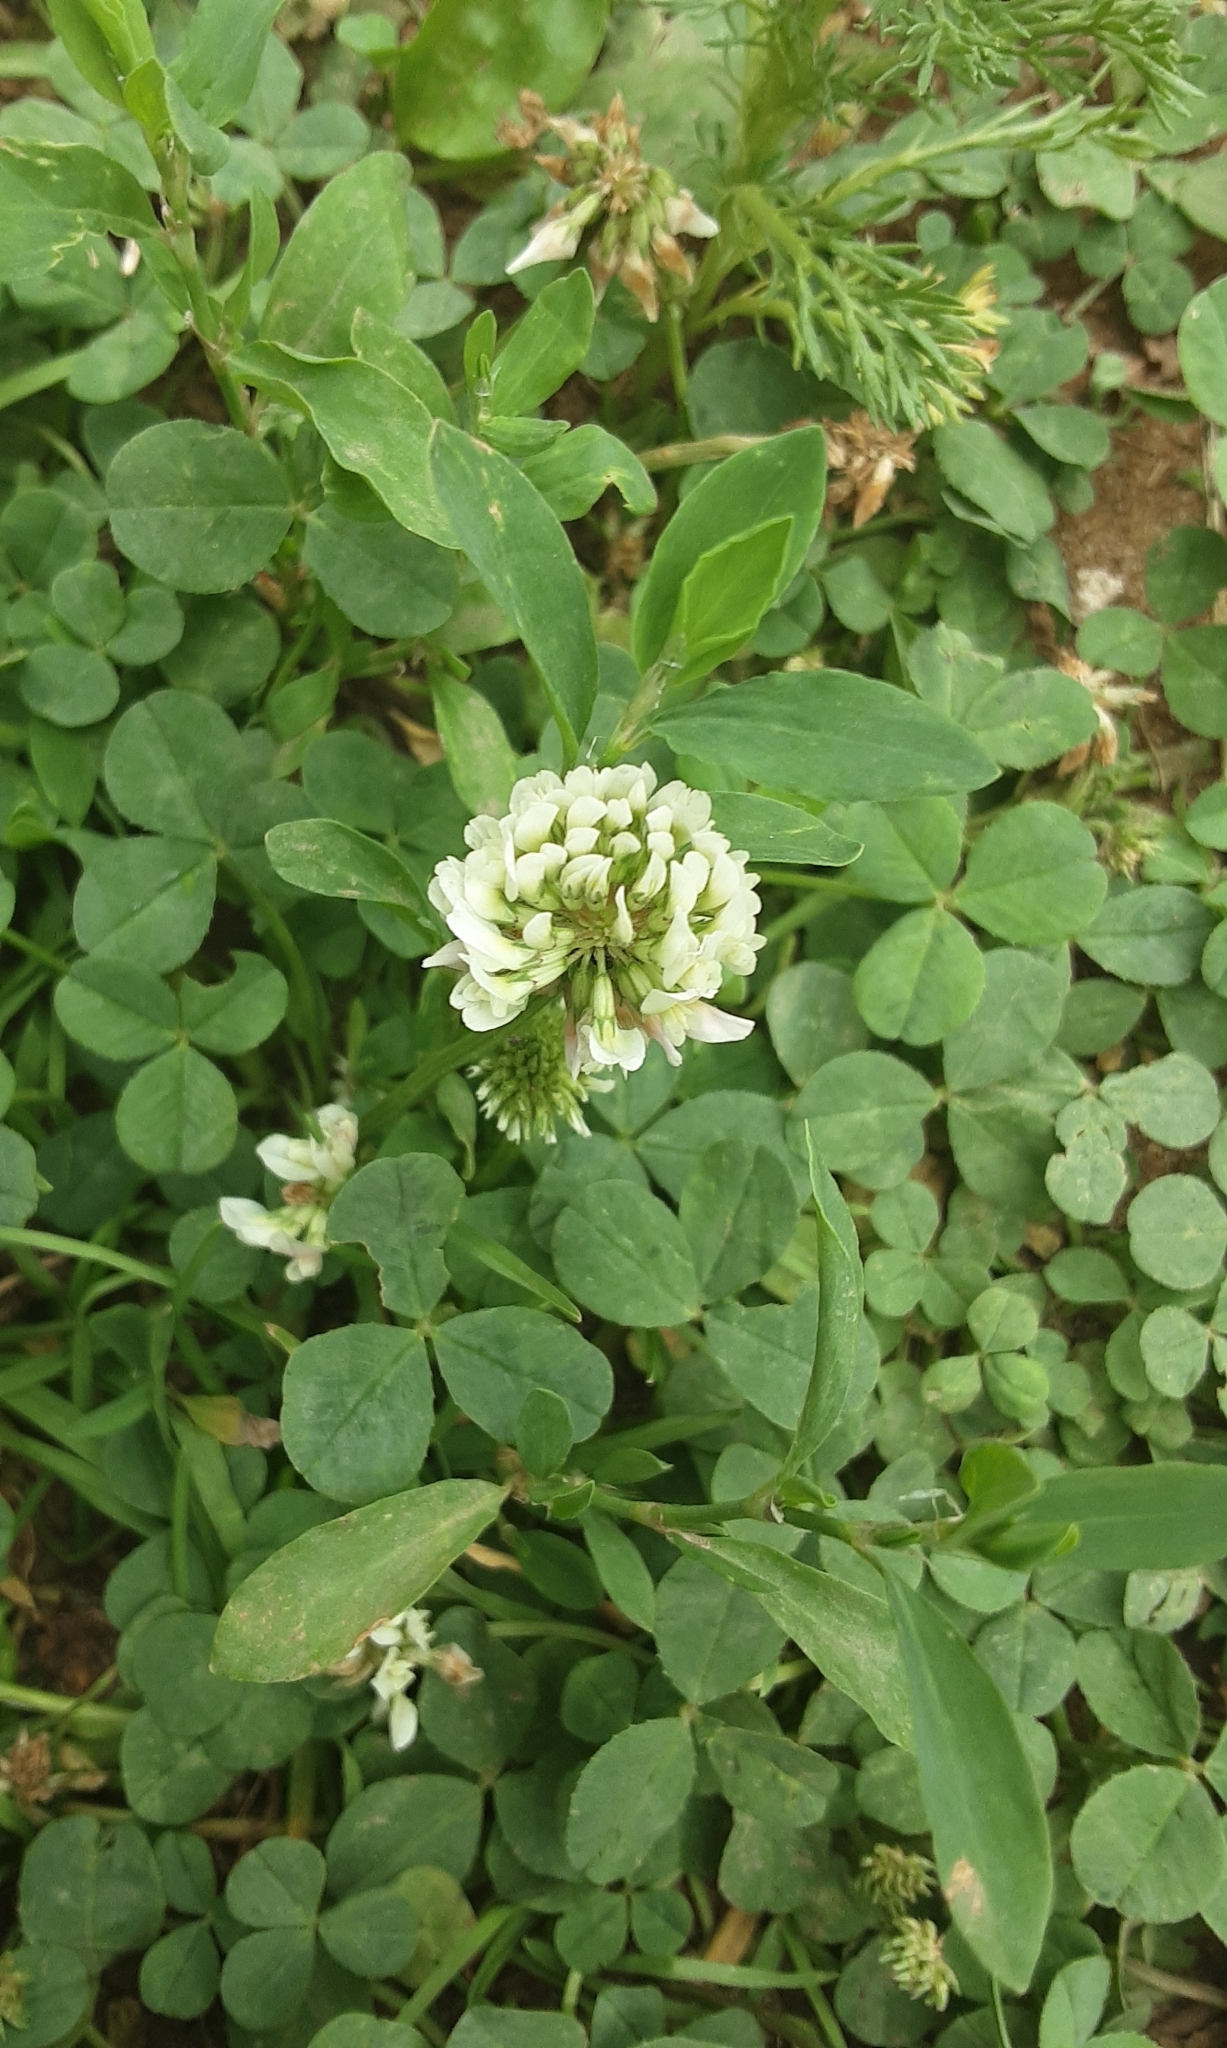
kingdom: Plantae
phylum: Tracheophyta
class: Magnoliopsida
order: Fabales
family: Fabaceae
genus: Trifolium
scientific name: Trifolium repens
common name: White clover
